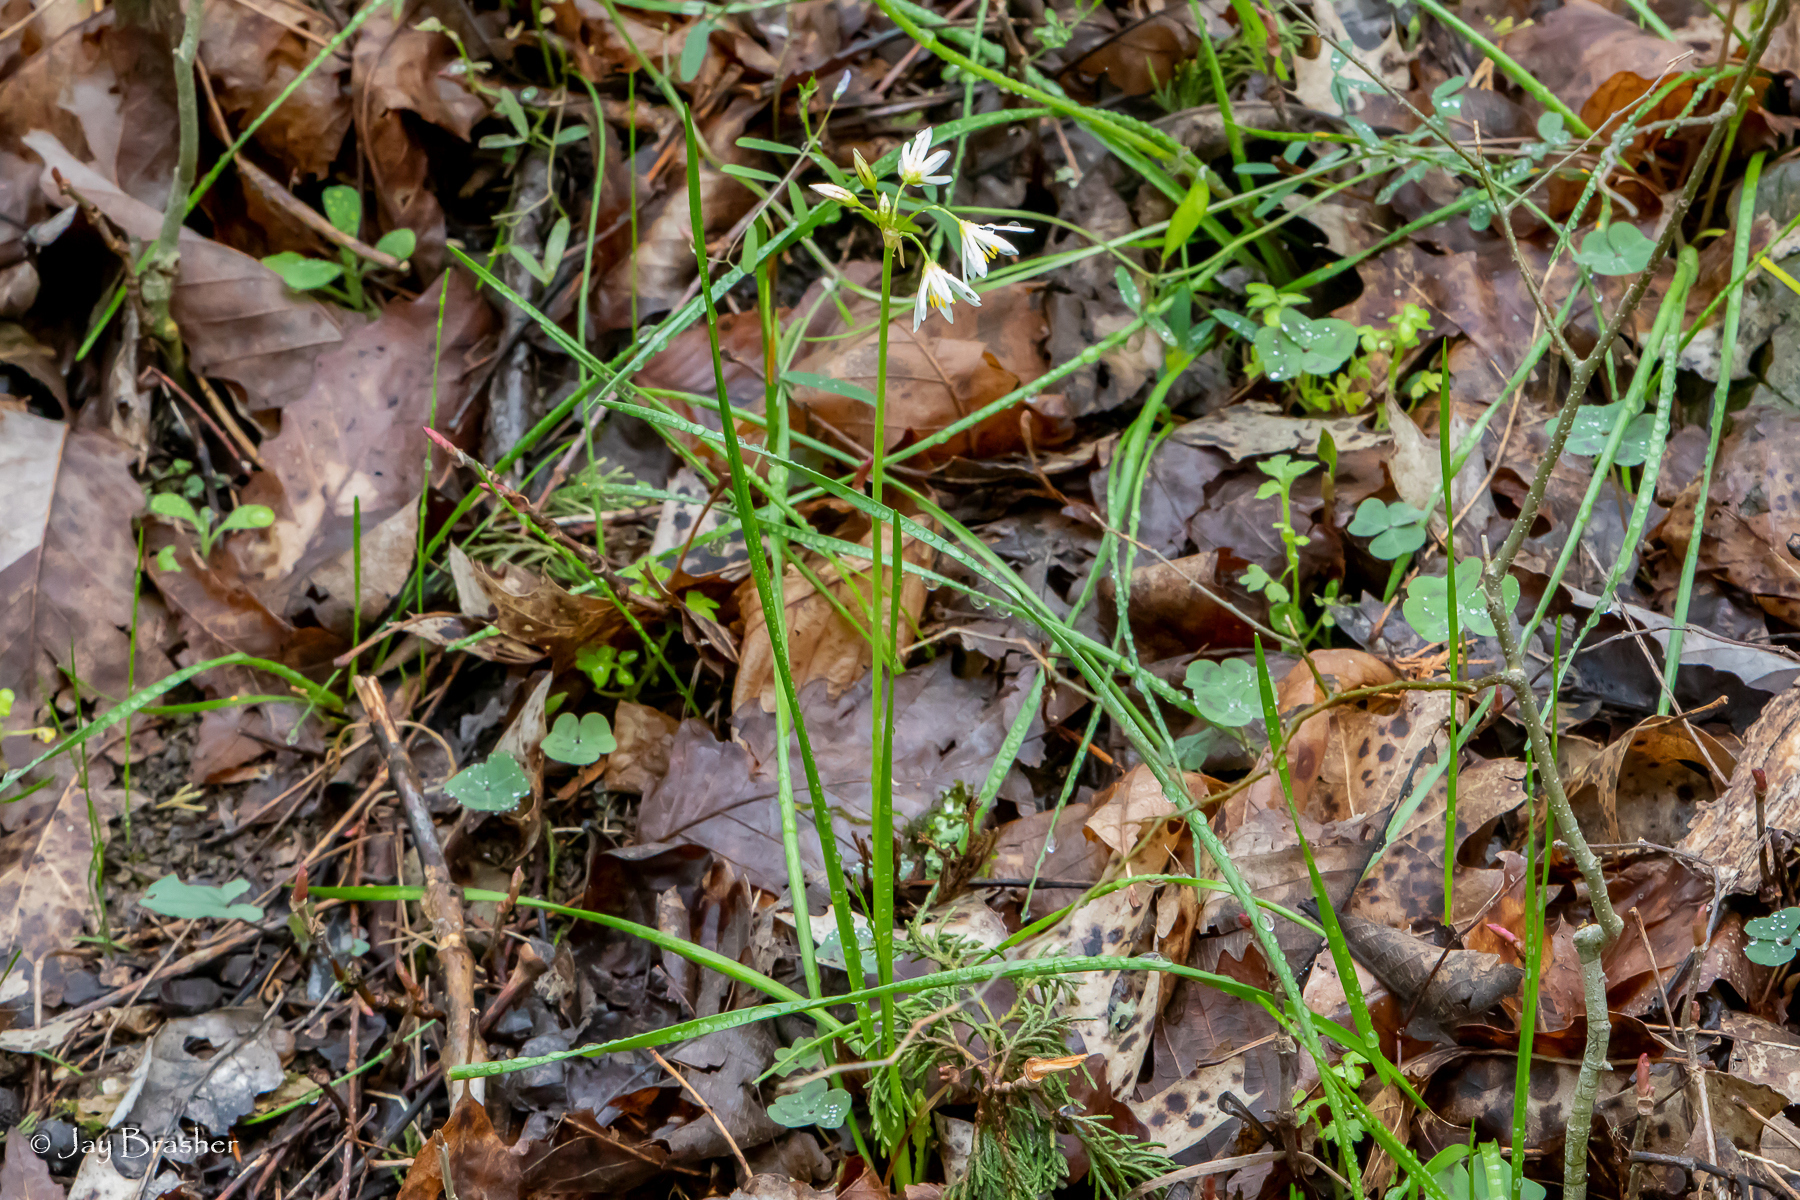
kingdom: Plantae
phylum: Tracheophyta
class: Liliopsida
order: Asparagales
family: Amaryllidaceae
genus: Nothoscordum
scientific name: Nothoscordum bivalve
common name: Crow-poison
